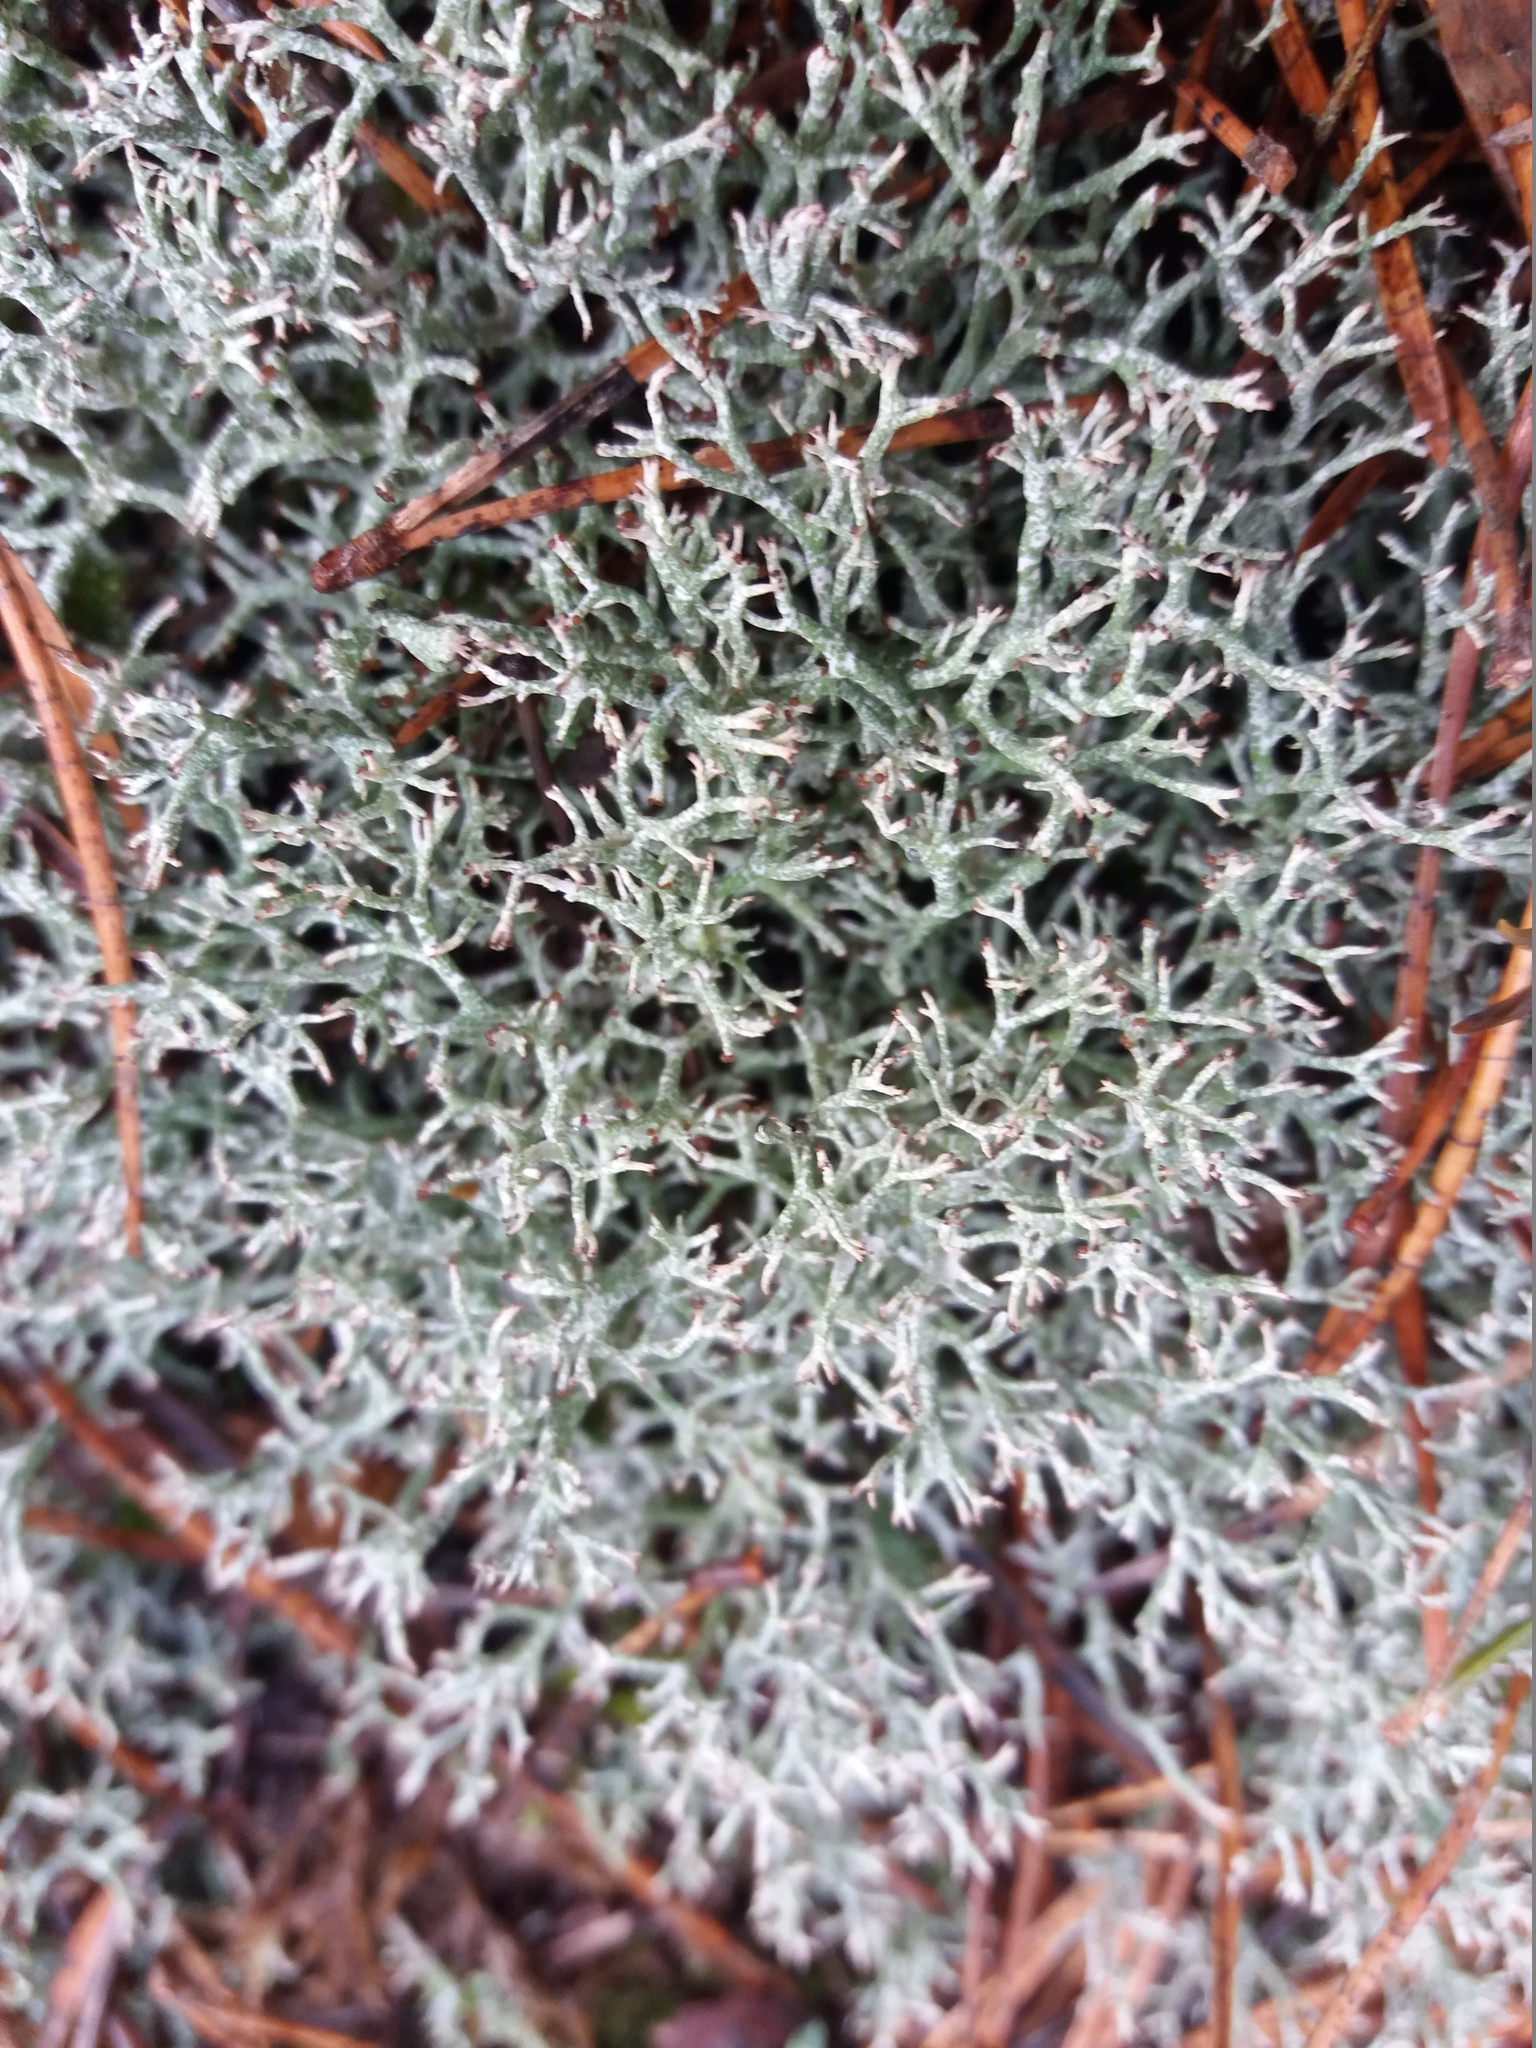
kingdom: Fungi
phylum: Ascomycota
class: Lecanoromycetes
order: Lecanorales
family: Cladoniaceae
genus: Cladonia
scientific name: Cladonia rangiformis
